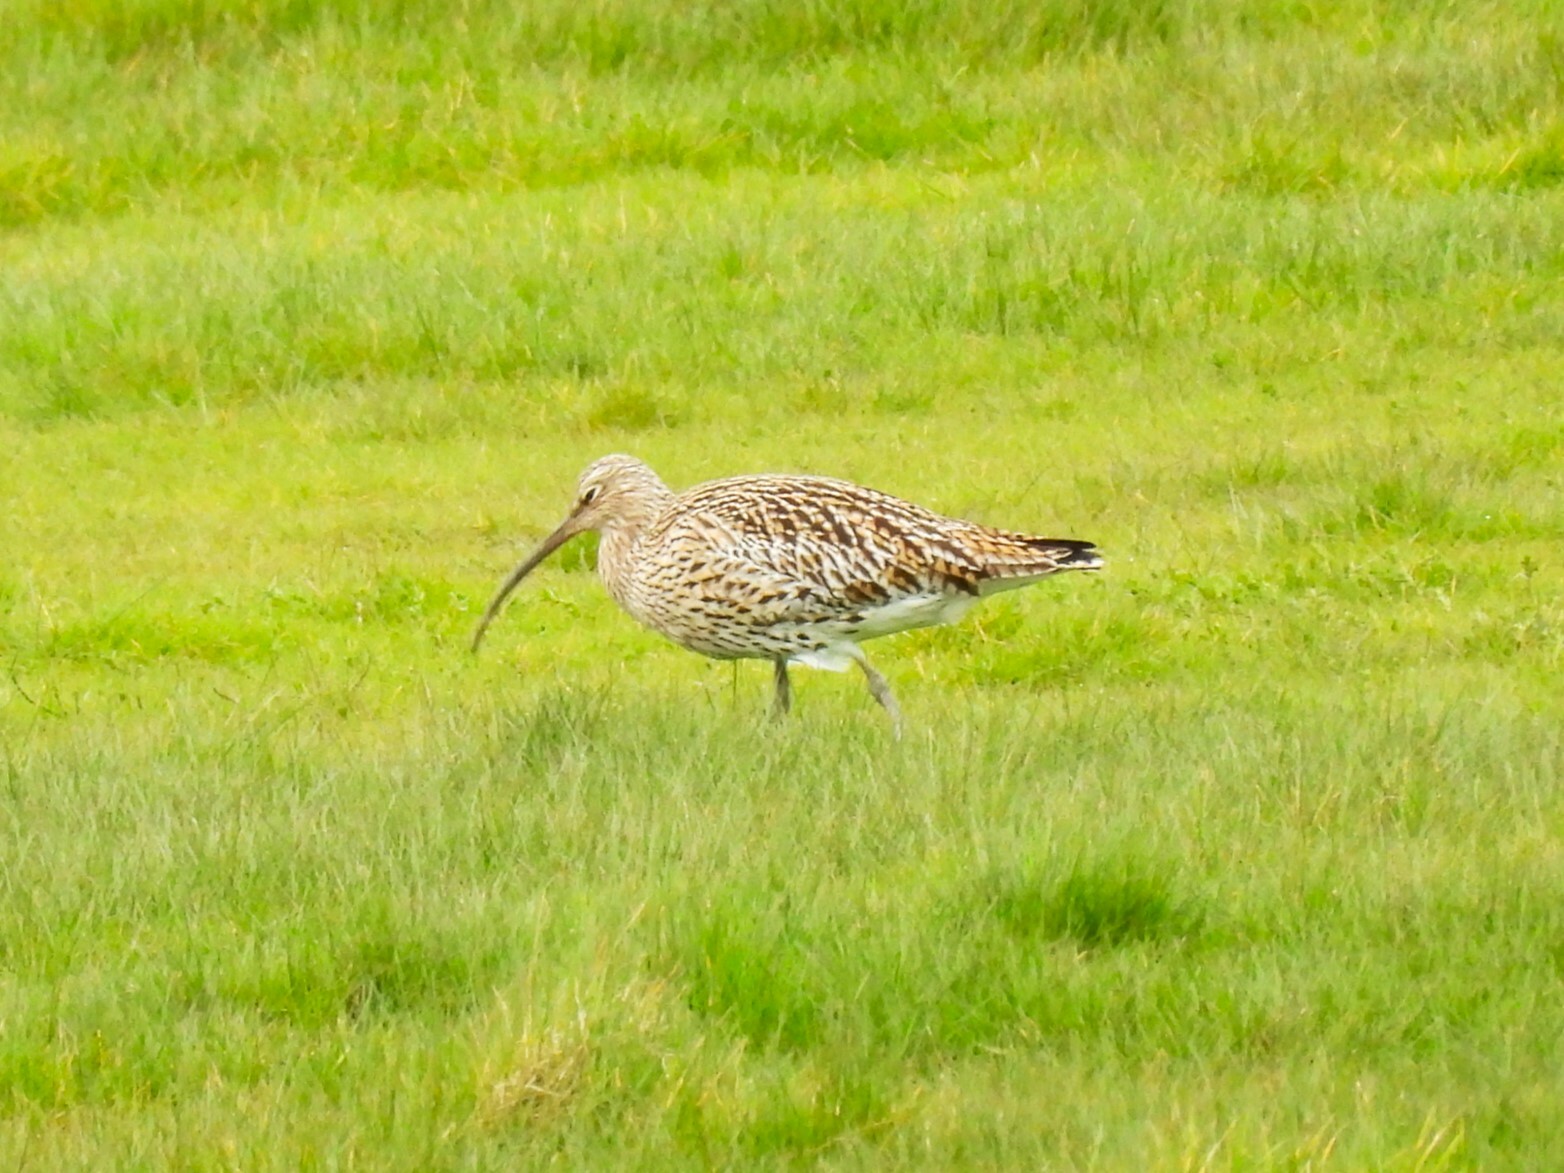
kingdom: Animalia
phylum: Chordata
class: Aves
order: Charadriiformes
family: Scolopacidae
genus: Numenius
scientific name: Numenius arquata
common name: Eurasian curlew
